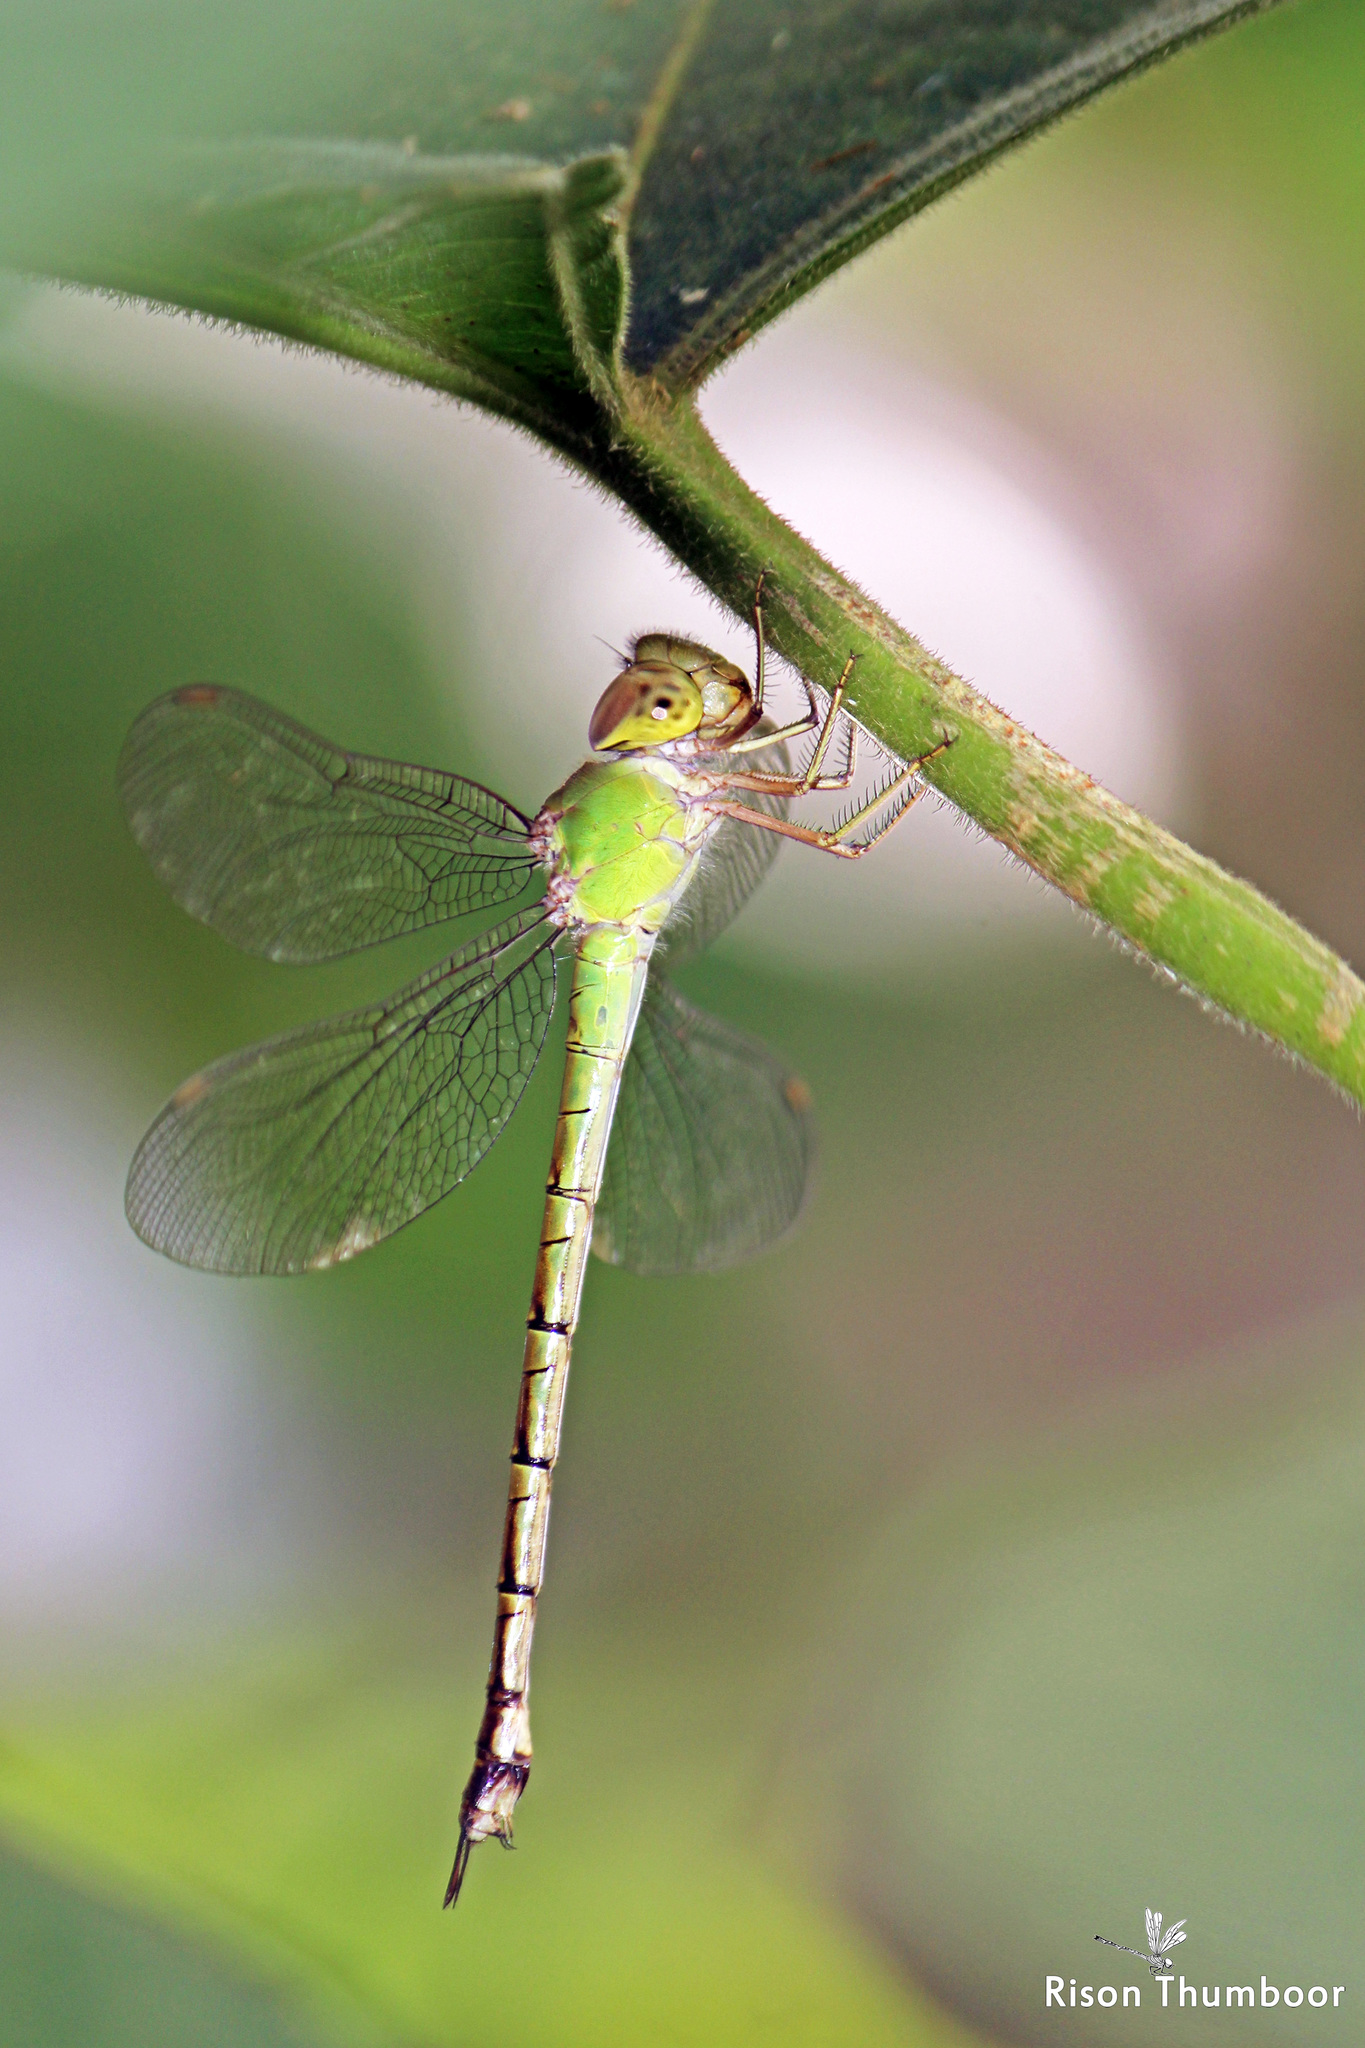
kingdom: Animalia
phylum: Arthropoda
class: Insecta
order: Odonata
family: Aeshnidae
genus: Gynacantha
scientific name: Gynacantha bayadera
